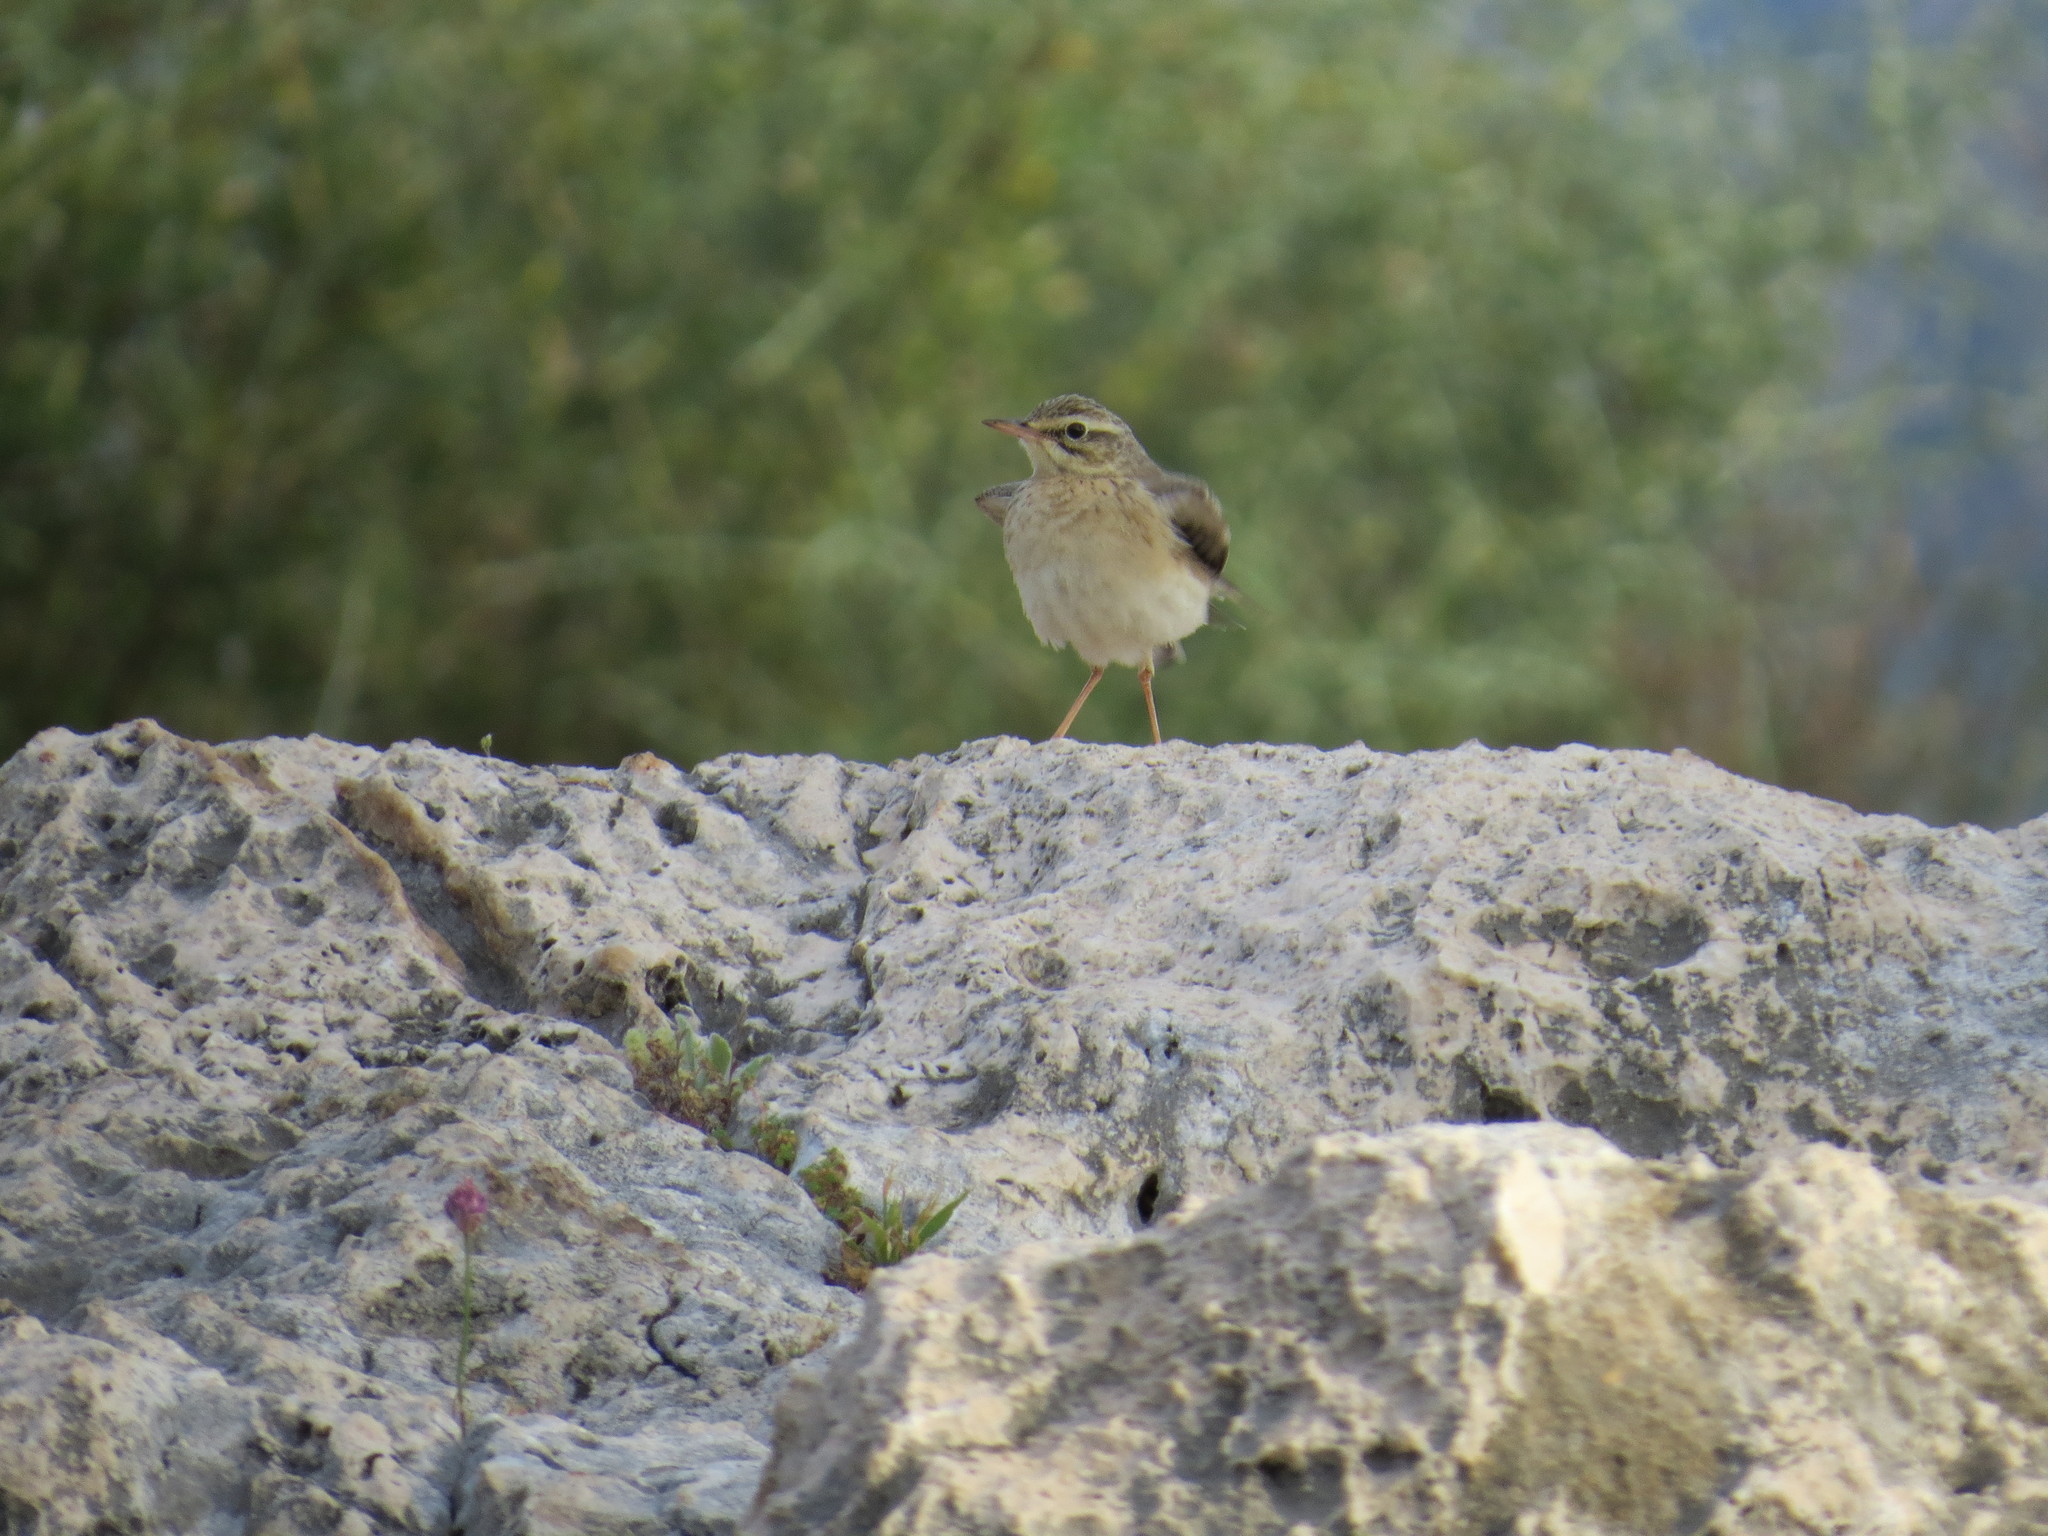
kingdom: Animalia
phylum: Chordata
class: Aves
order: Passeriformes
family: Motacillidae
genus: Anthus
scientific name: Anthus campestris
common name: Tawny pipit
